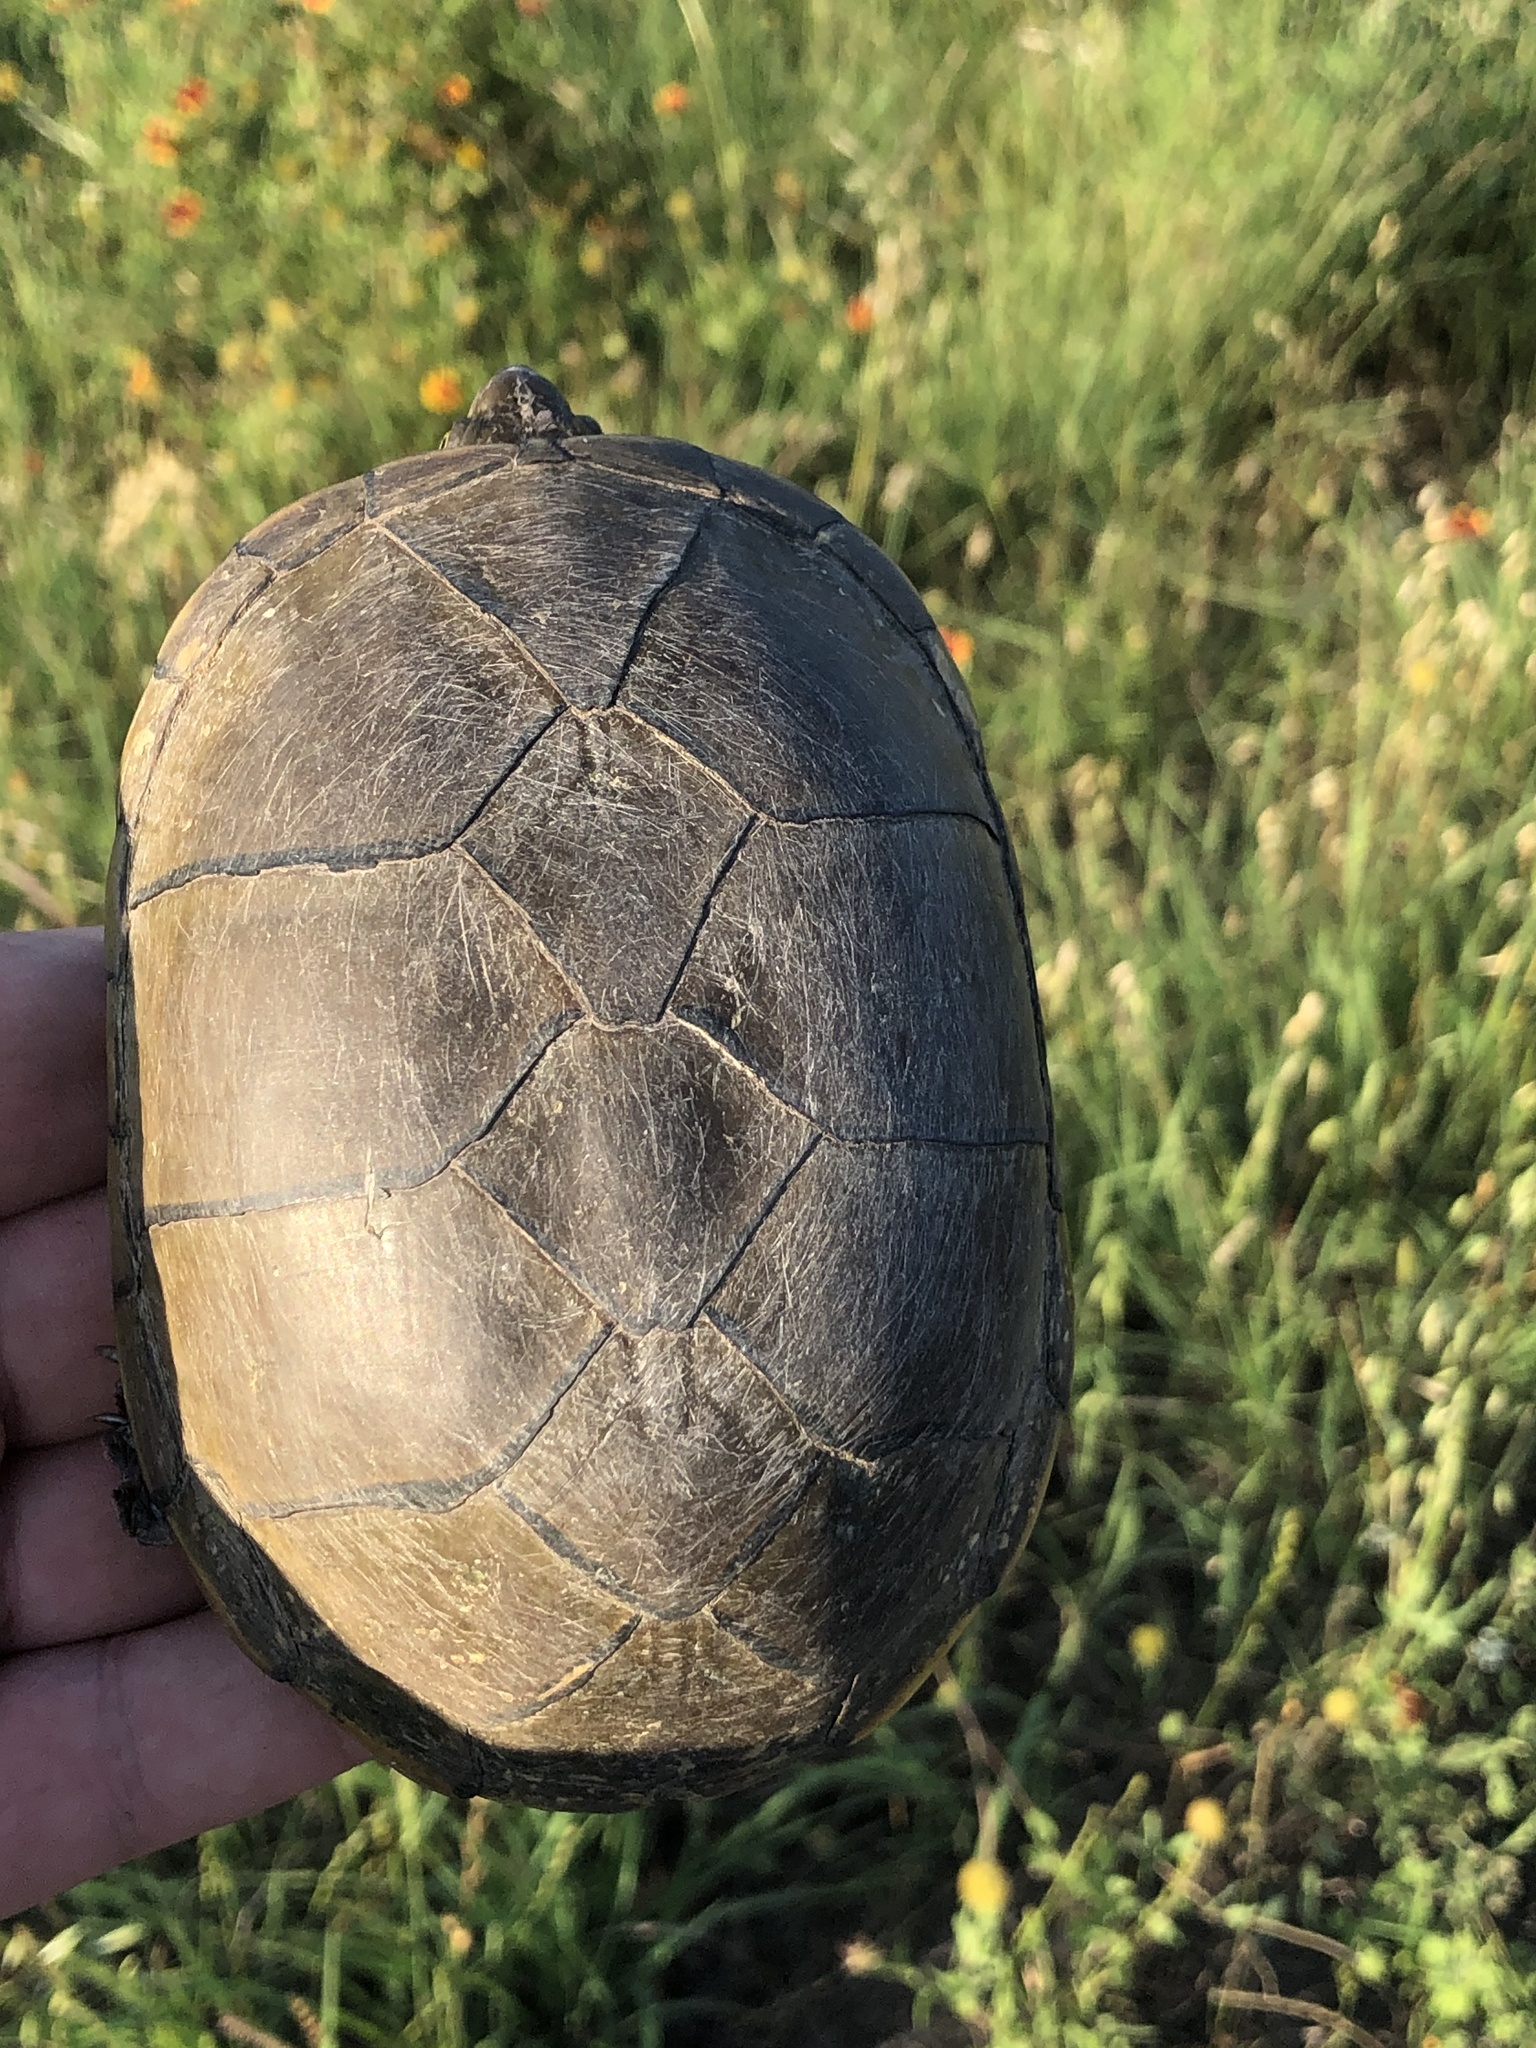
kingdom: Animalia
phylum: Chordata
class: Testudines
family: Kinosternidae
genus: Kinosternon
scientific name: Kinosternon flavescens
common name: Yellow mud turtle
